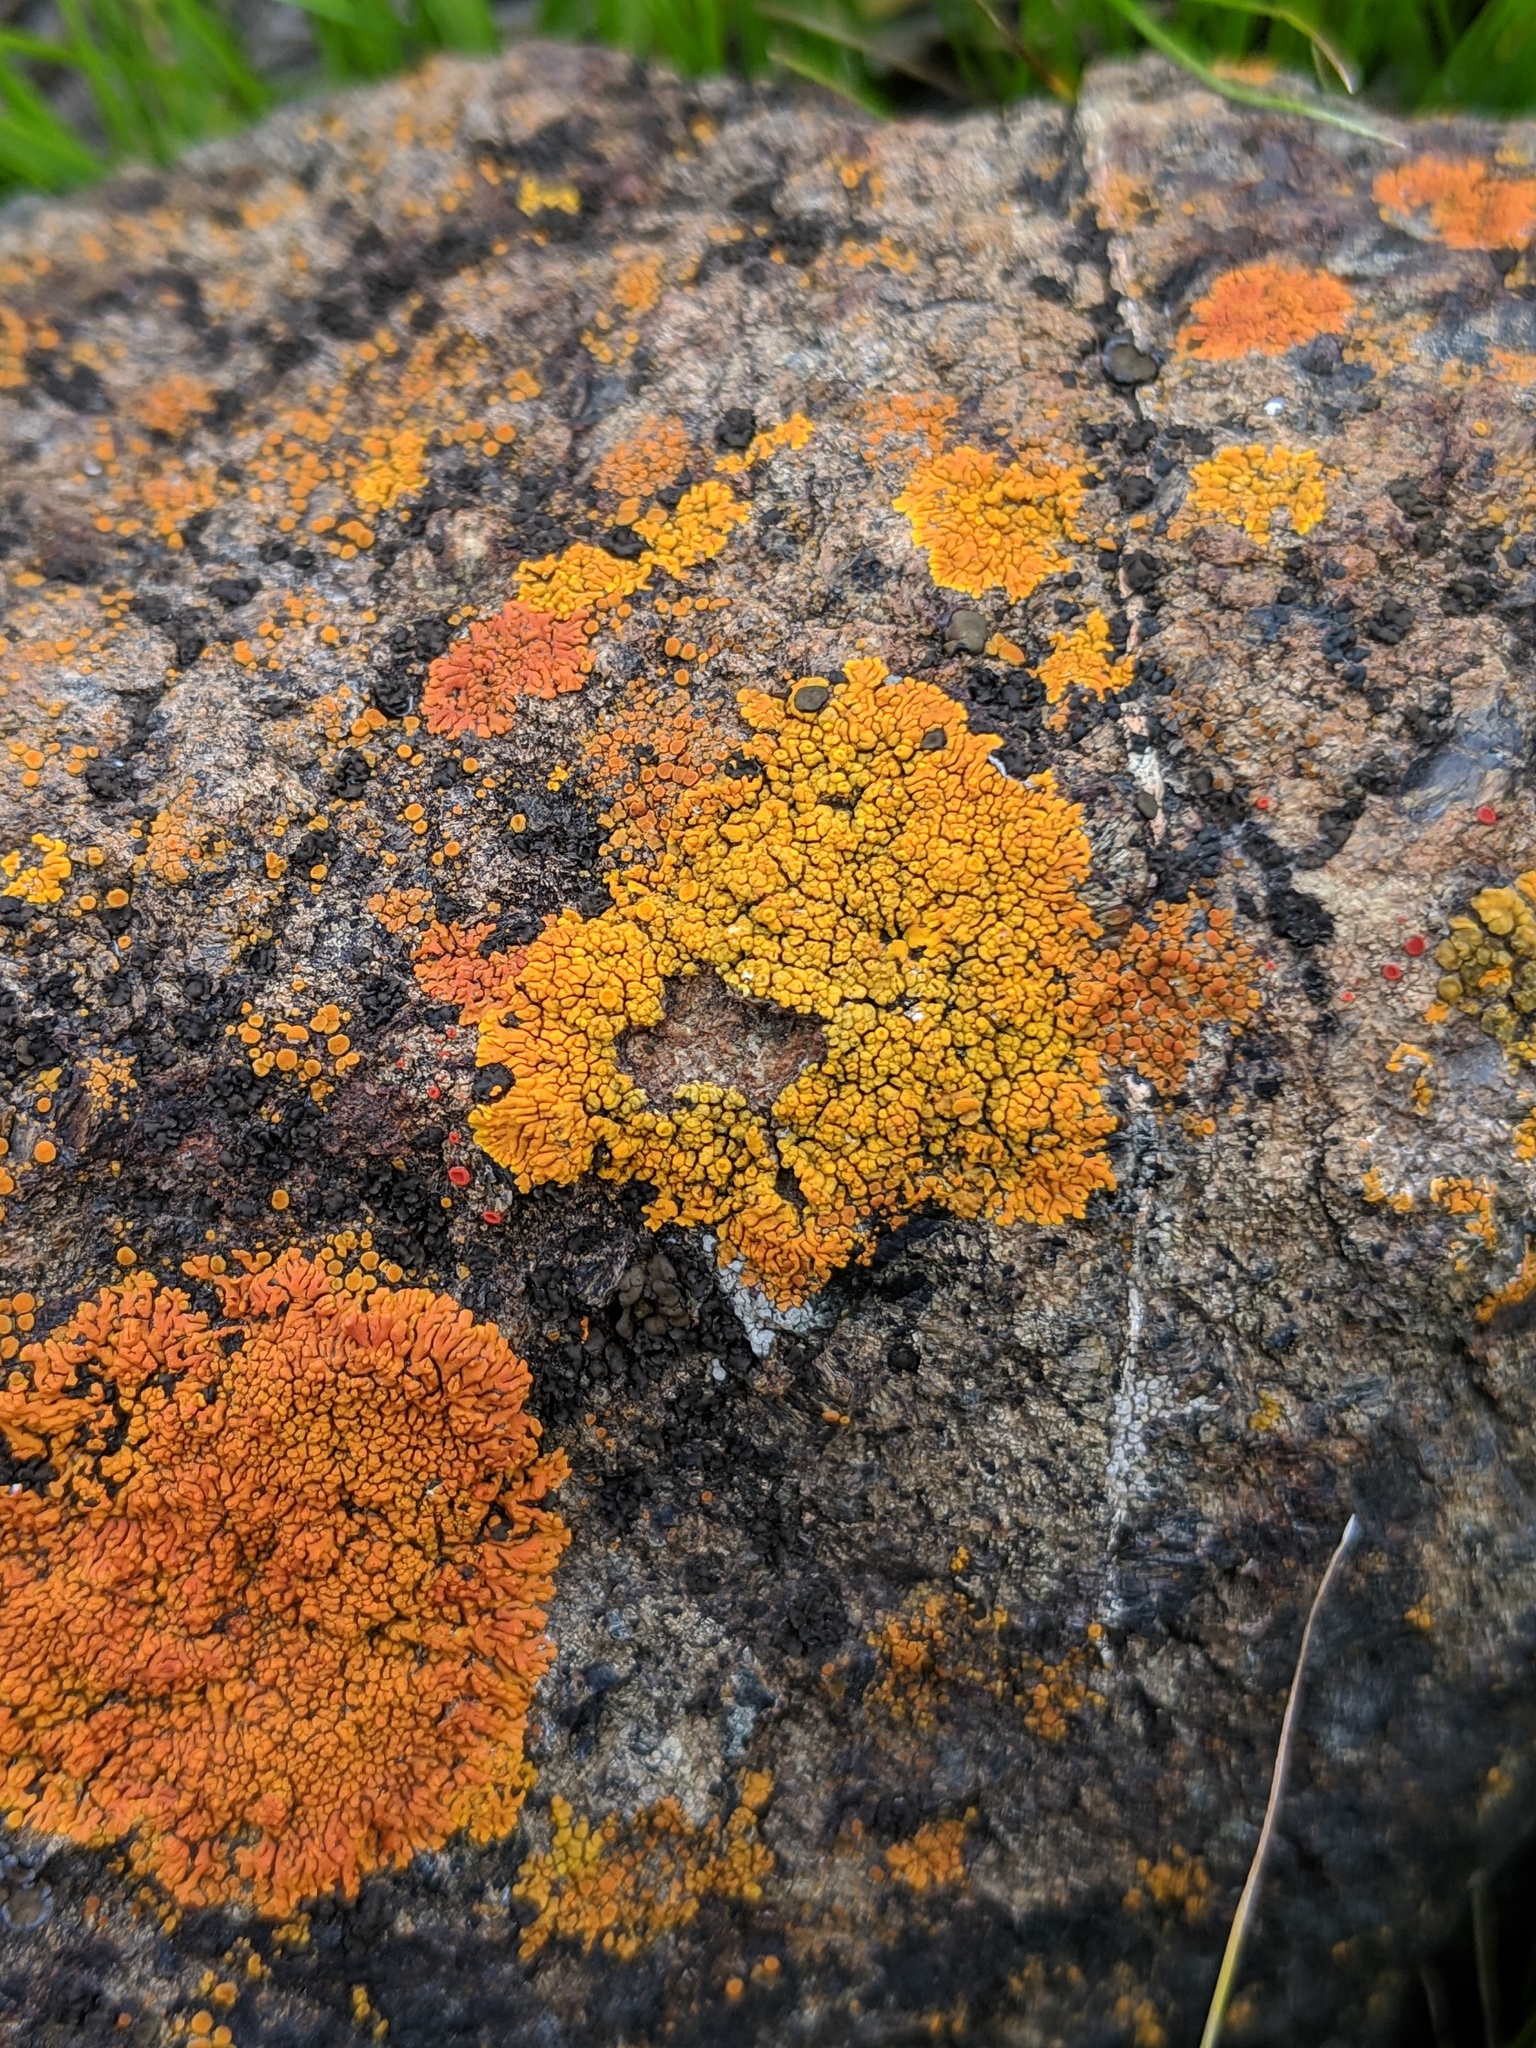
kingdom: Fungi
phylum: Ascomycota
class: Lecanoromycetes
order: Teloschistales
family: Teloschistaceae
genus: Igneoplaca
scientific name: Igneoplaca ignea
